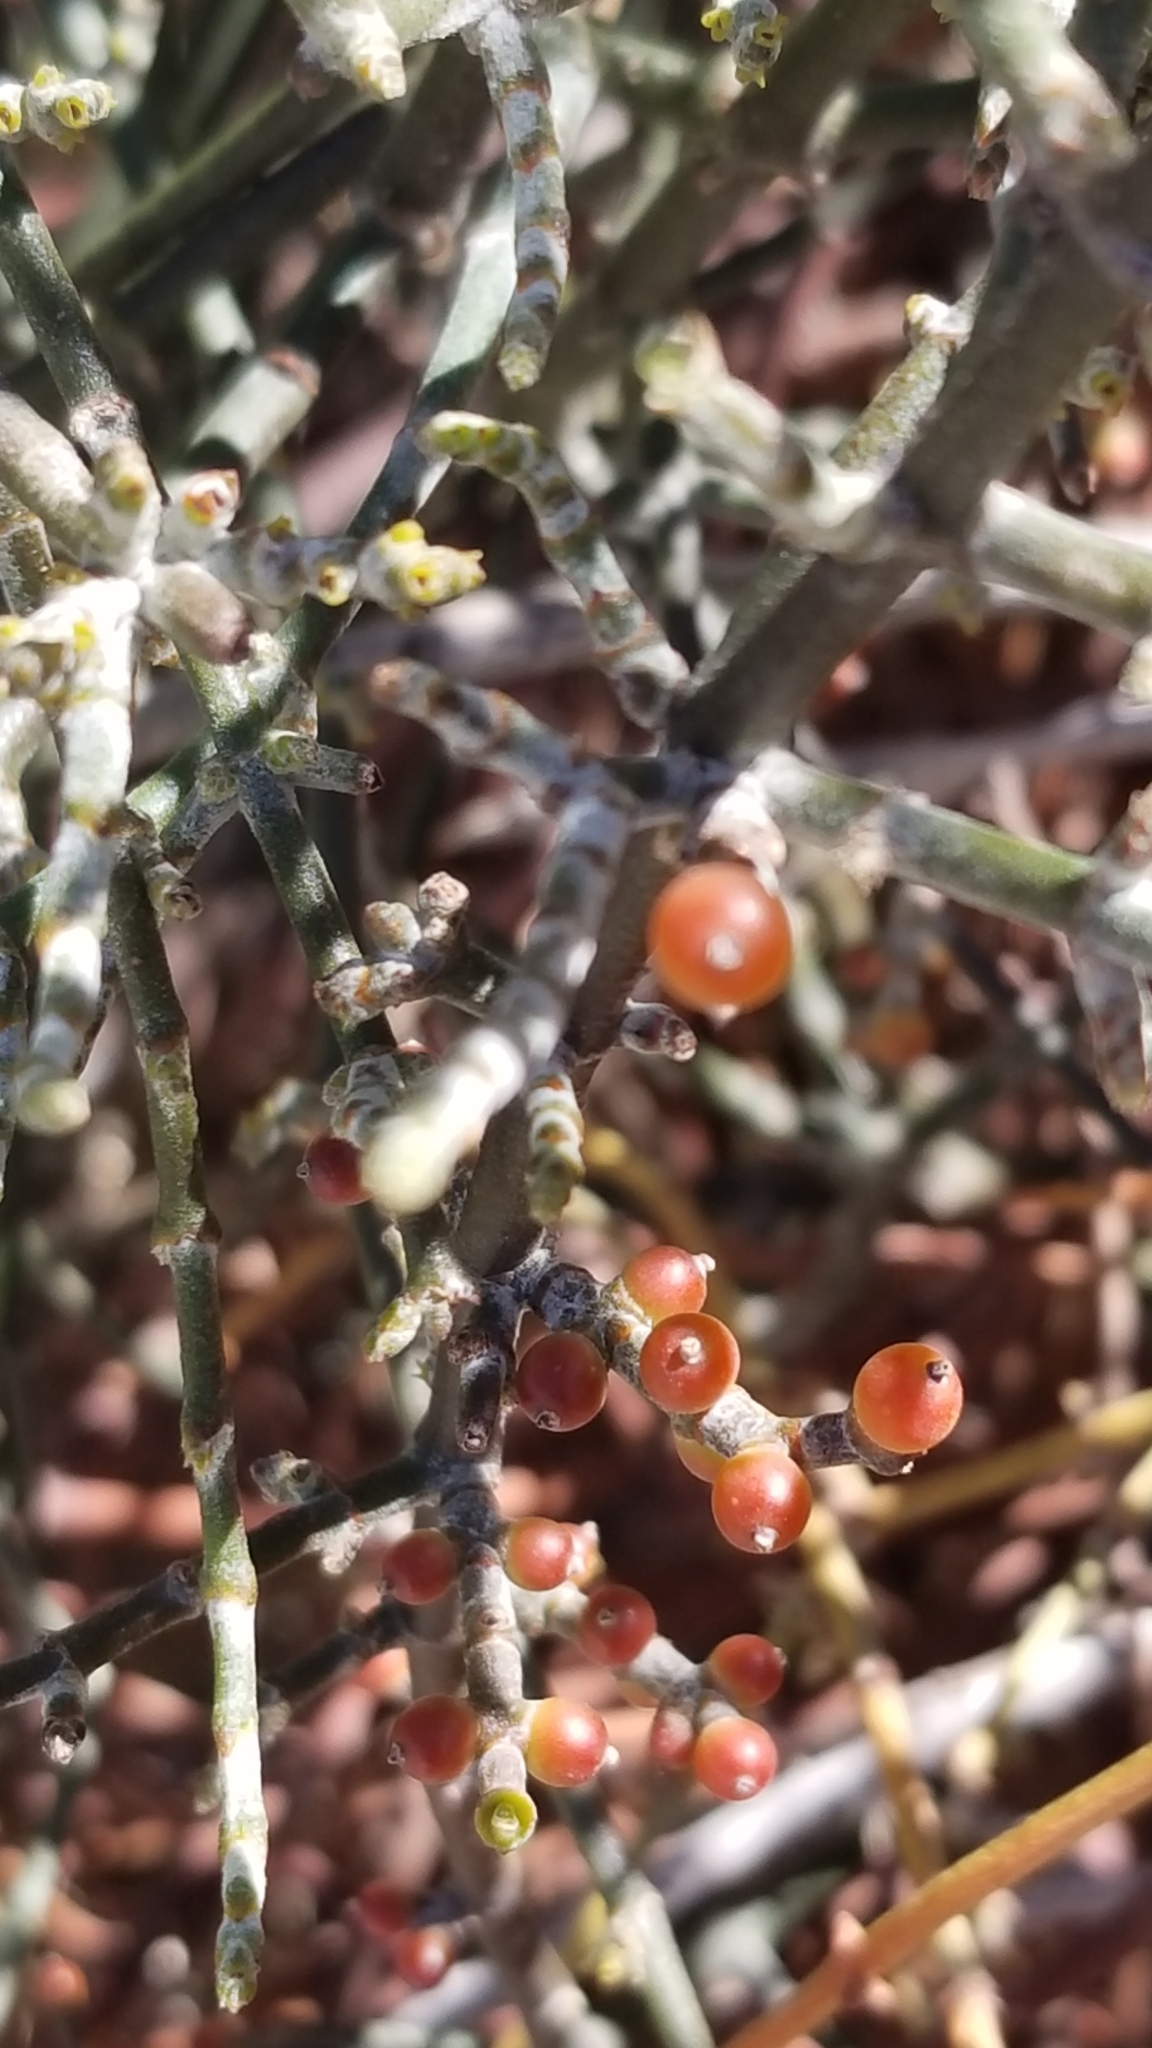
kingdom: Plantae
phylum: Tracheophyta
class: Magnoliopsida
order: Santalales
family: Viscaceae
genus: Phoradendron
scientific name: Phoradendron californicum
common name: Acacia mistletoe
